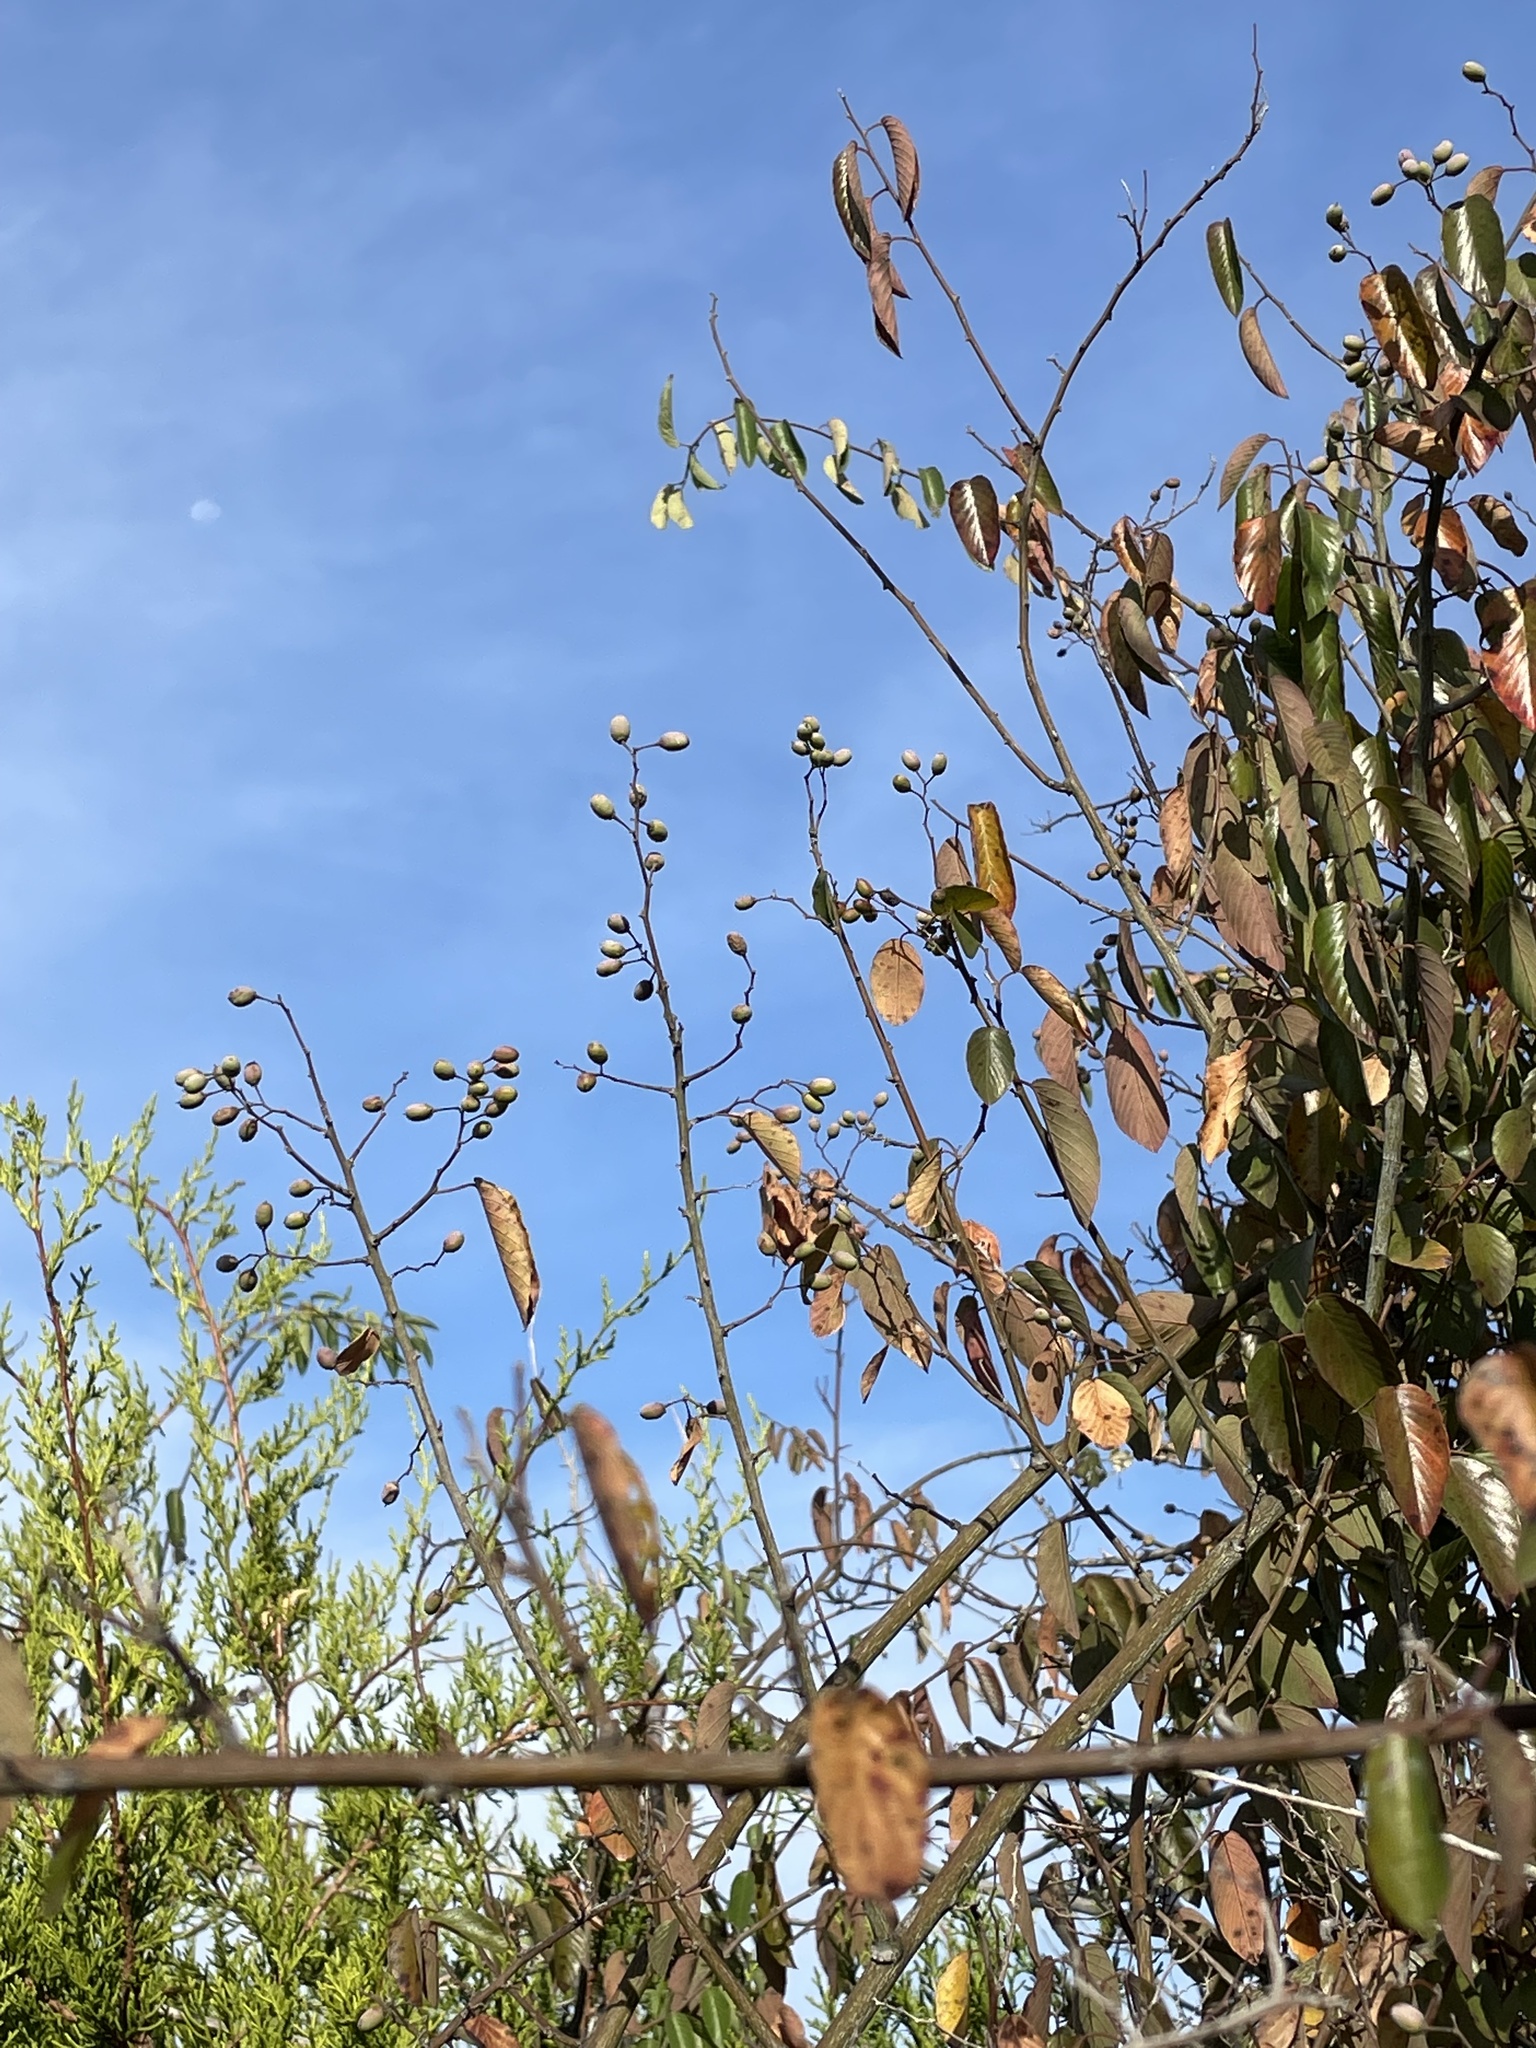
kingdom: Plantae
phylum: Tracheophyta
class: Magnoliopsida
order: Rosales
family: Rhamnaceae
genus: Berchemia
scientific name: Berchemia scandens
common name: Supplejack
